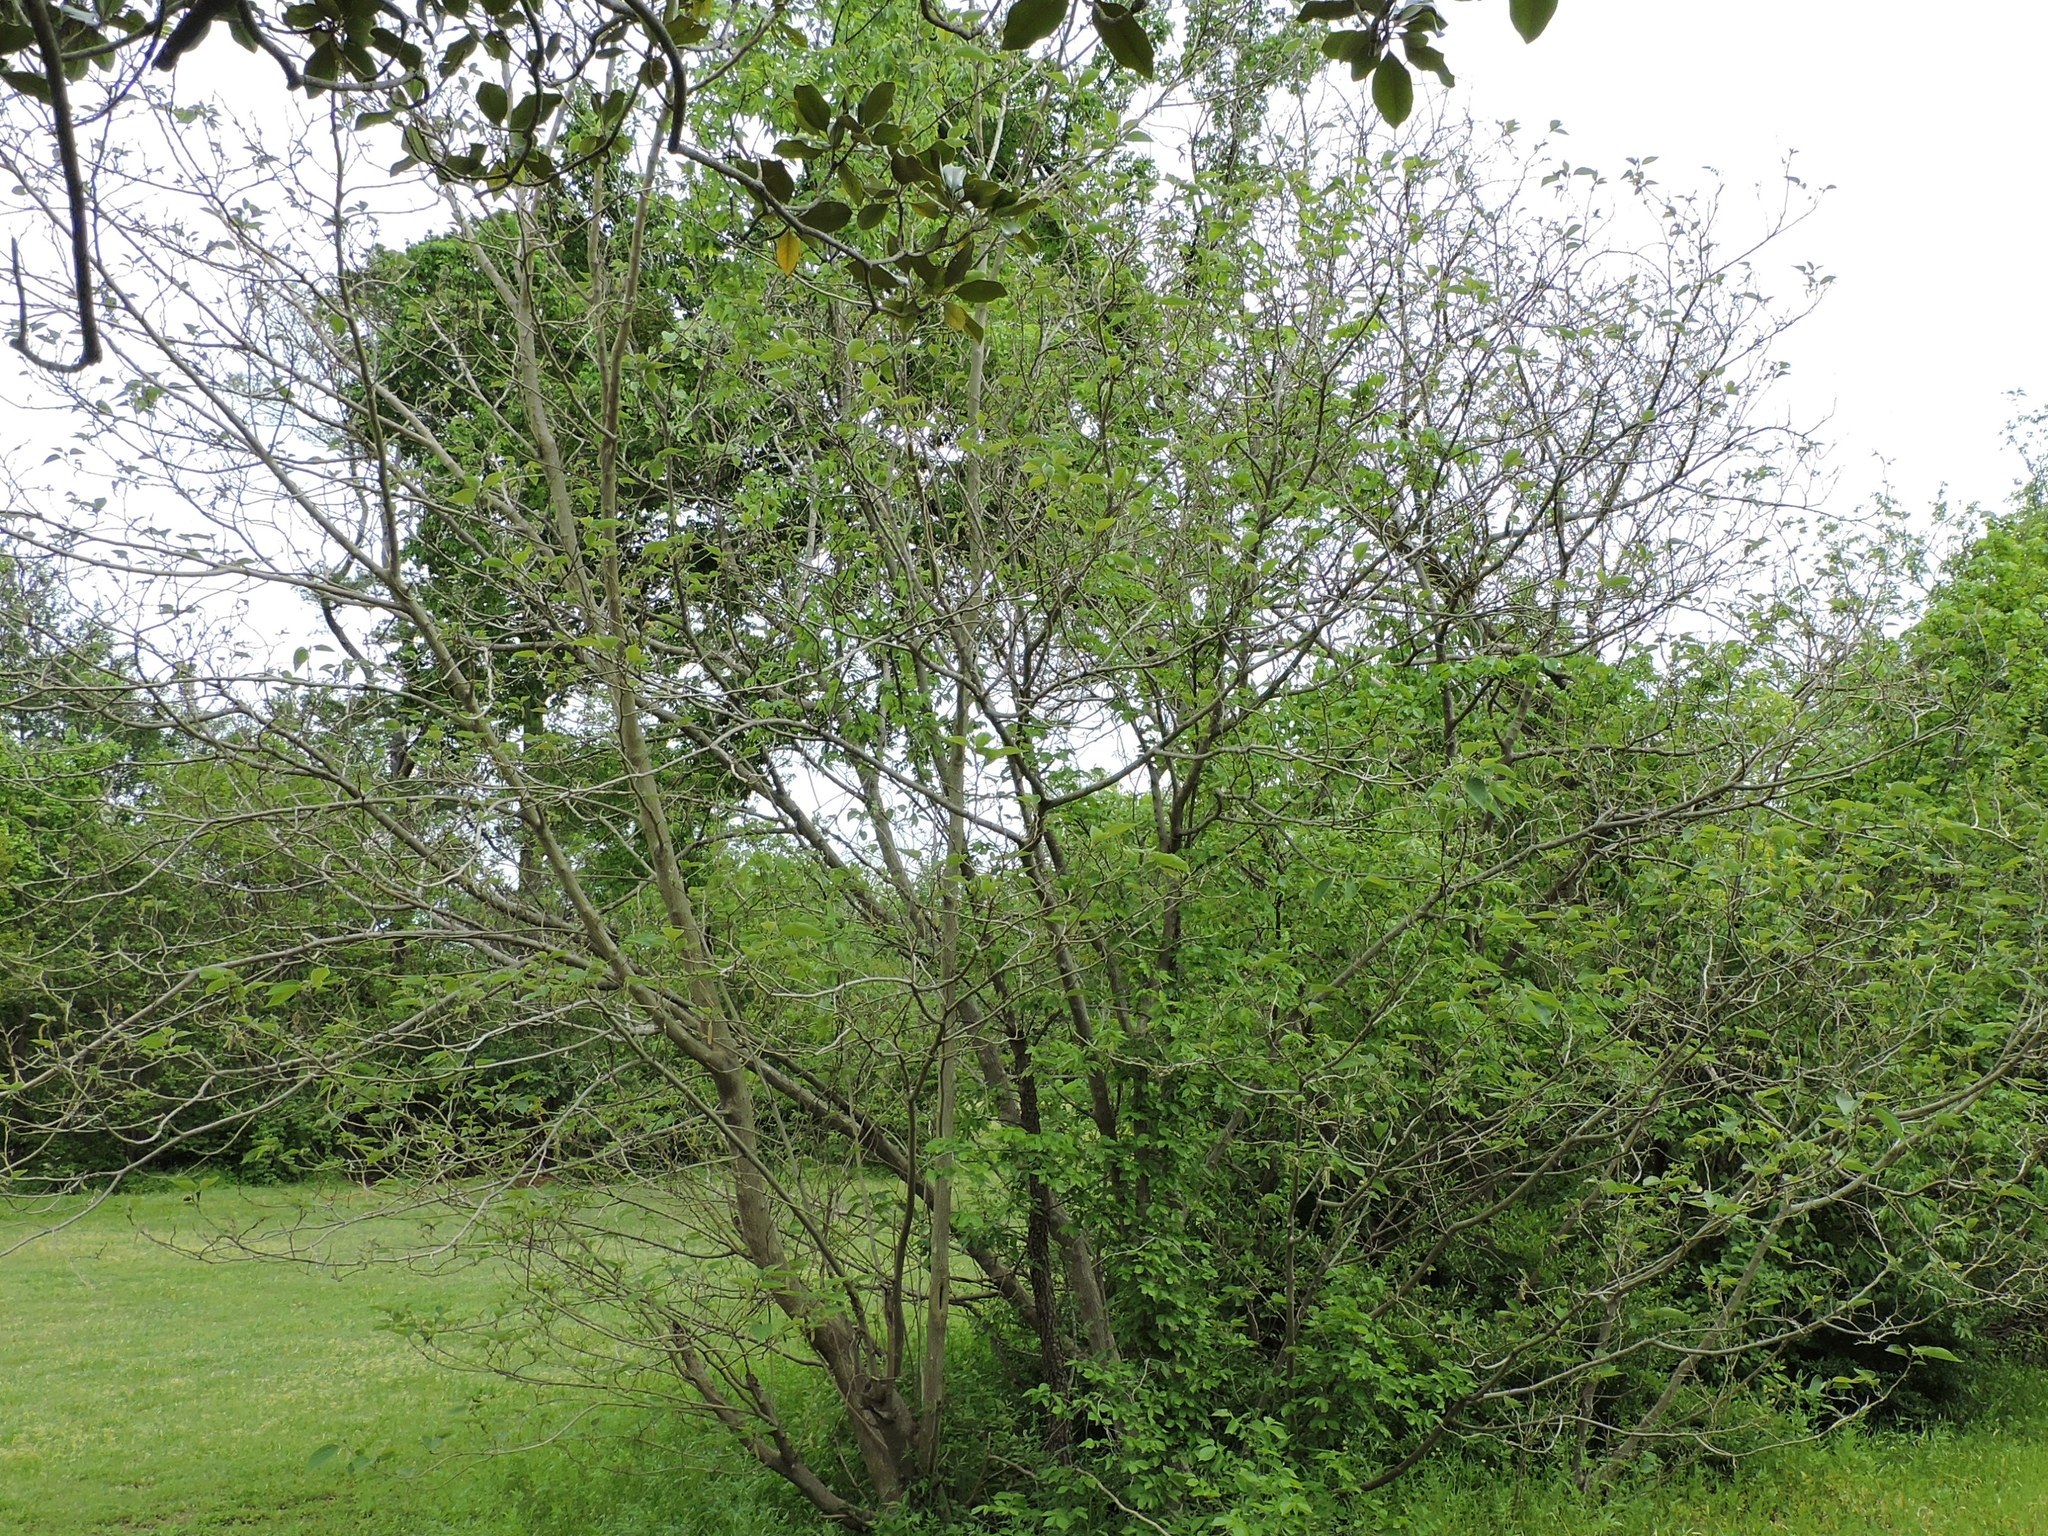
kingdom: Plantae
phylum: Tracheophyta
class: Magnoliopsida
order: Rosales
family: Moraceae
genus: Broussonetia
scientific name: Broussonetia papyrifera
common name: Paper mulberry
